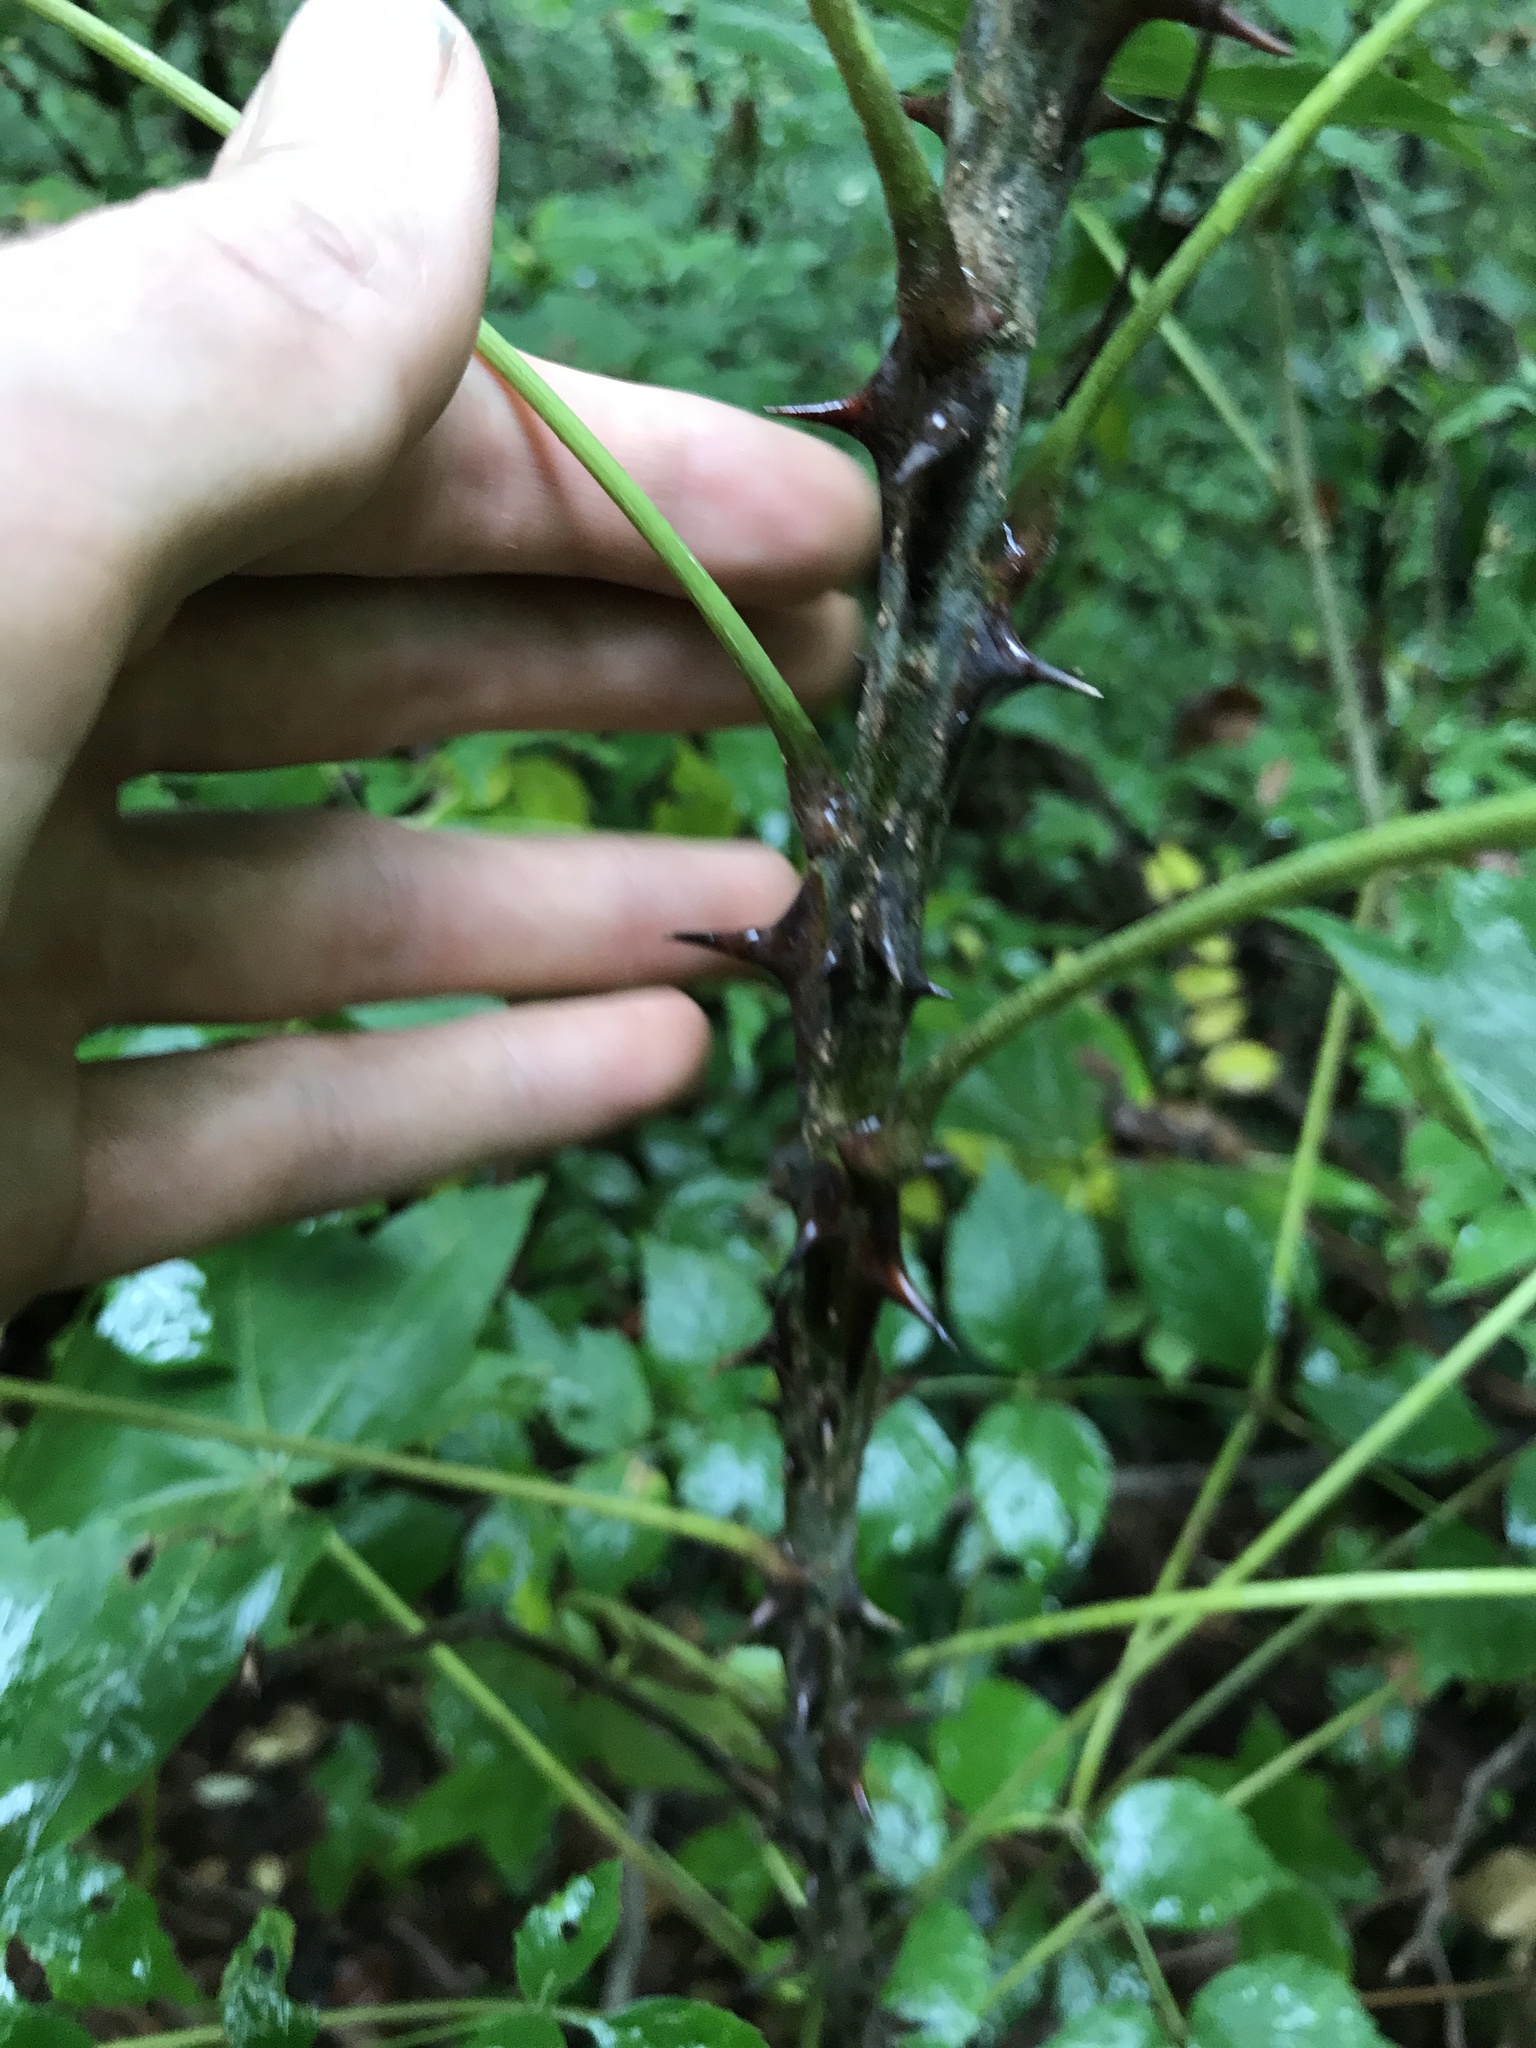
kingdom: Plantae
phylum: Tracheophyta
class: Magnoliopsida
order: Apiales
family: Araliaceae
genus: Kalopanax
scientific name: Kalopanax septemlobus
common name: Castor aralia
